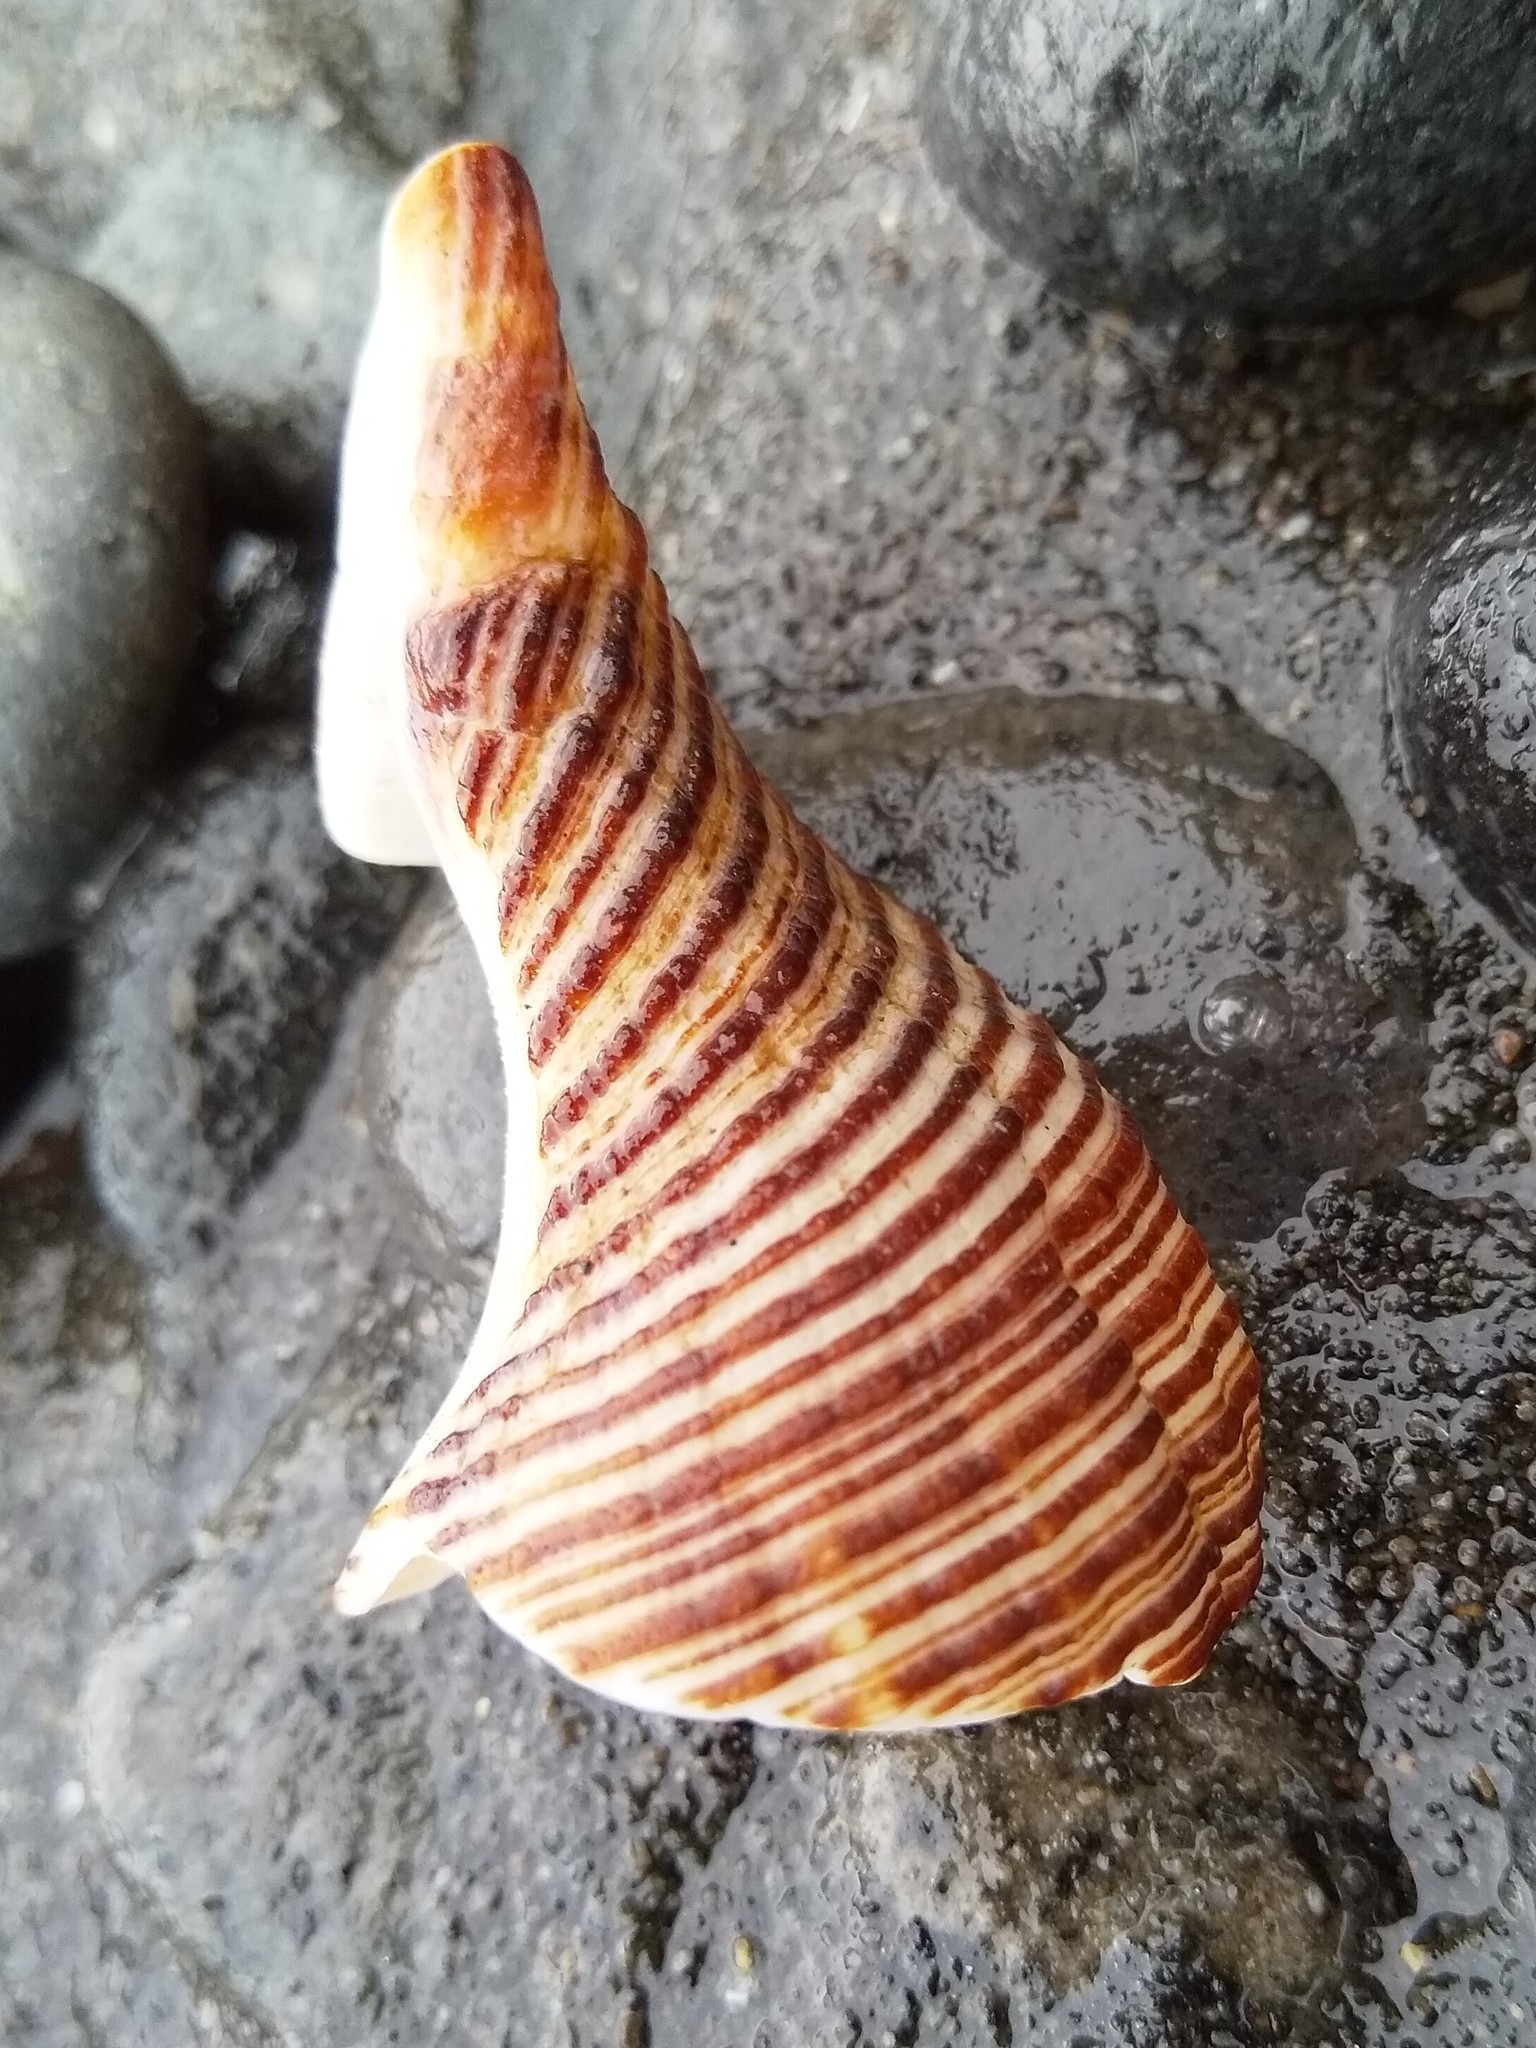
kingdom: Animalia
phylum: Mollusca
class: Gastropoda
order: Neogastropoda
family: Austrosiphonidae
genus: Penion
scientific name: Penion sulcatus
